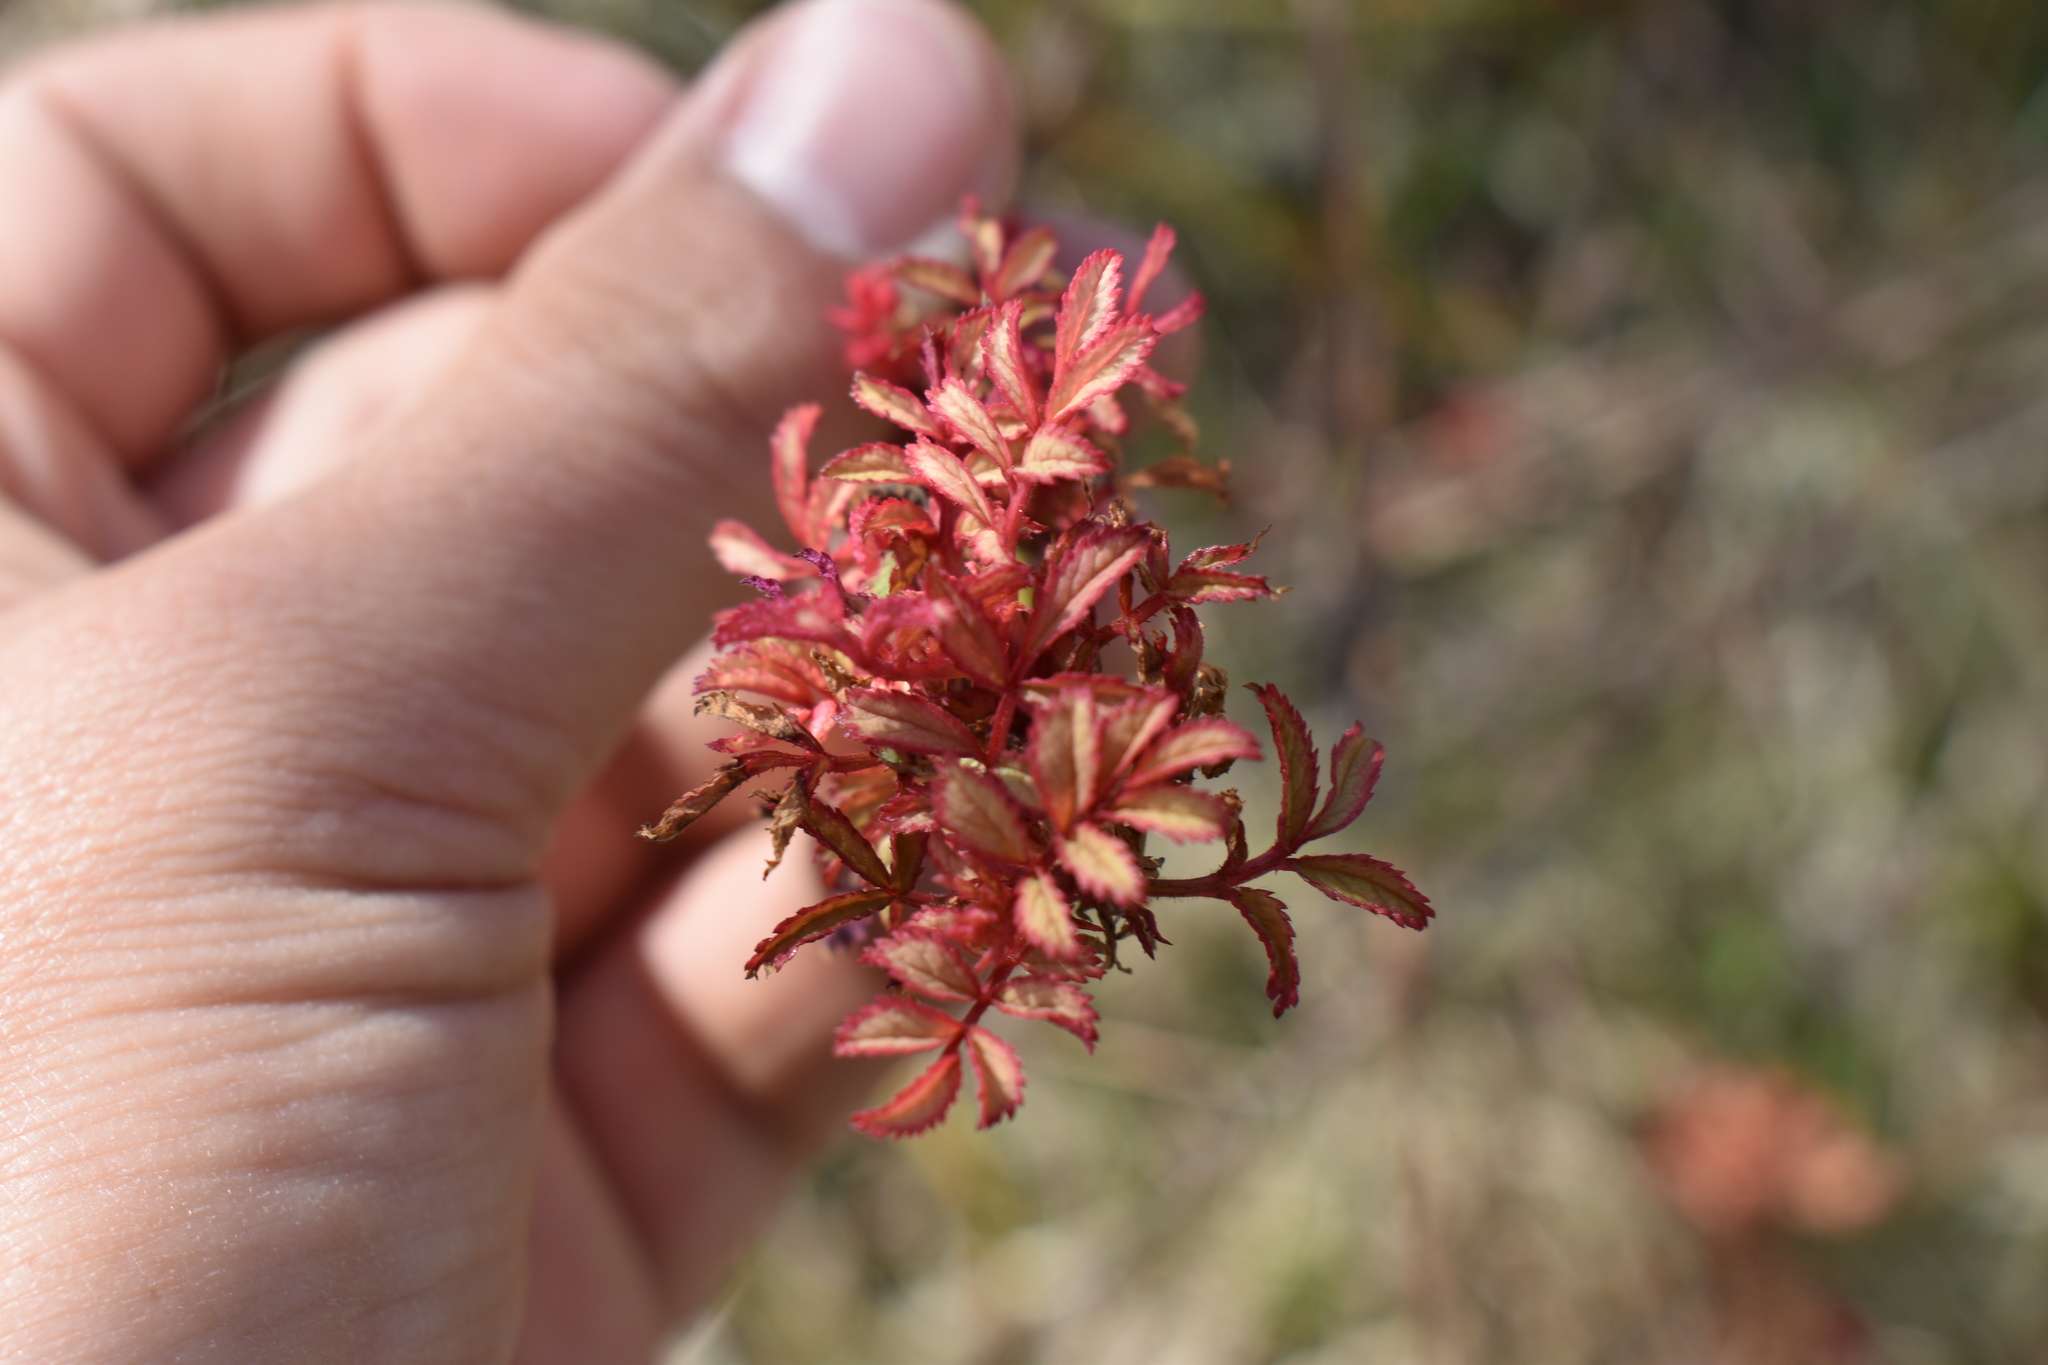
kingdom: Plantae
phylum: Tracheophyta
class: Magnoliopsida
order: Rosales
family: Rosaceae
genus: Rosa
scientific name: Rosa multiflora
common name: Multiflora rose
